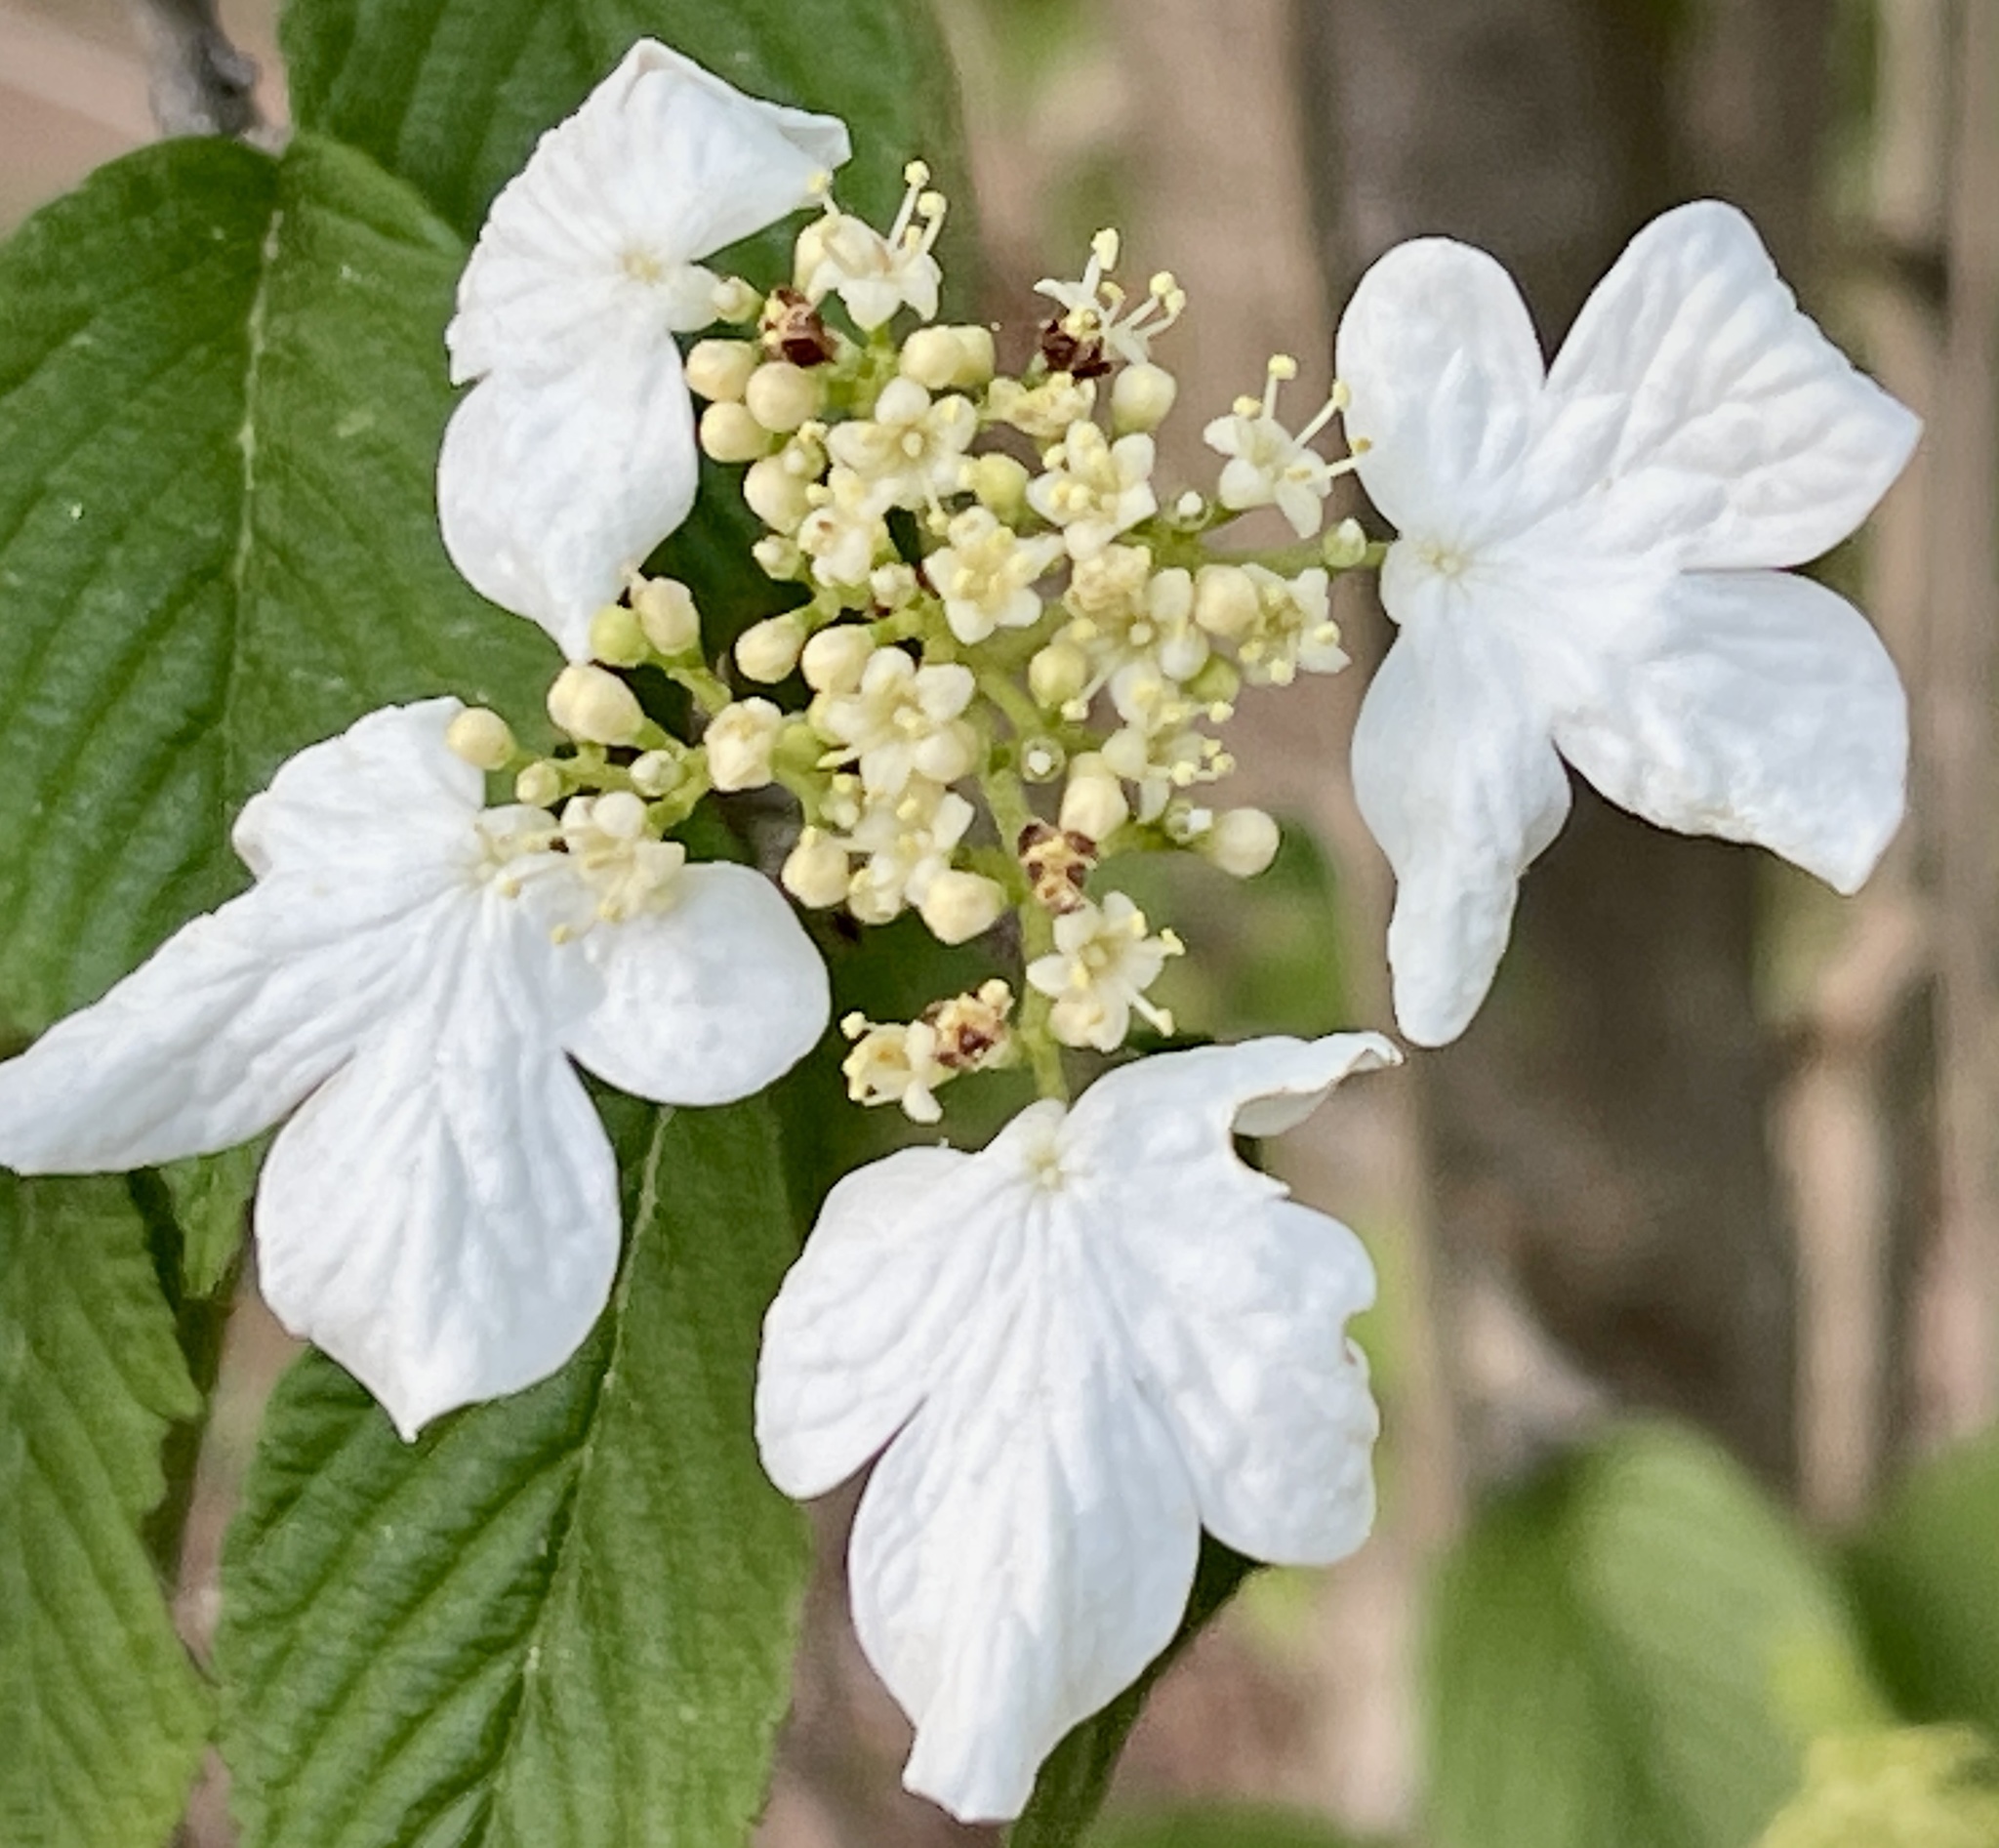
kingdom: Plantae
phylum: Tracheophyta
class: Magnoliopsida
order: Dipsacales
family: Viburnaceae
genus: Viburnum
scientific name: Viburnum plicatum
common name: Japanese snowball
